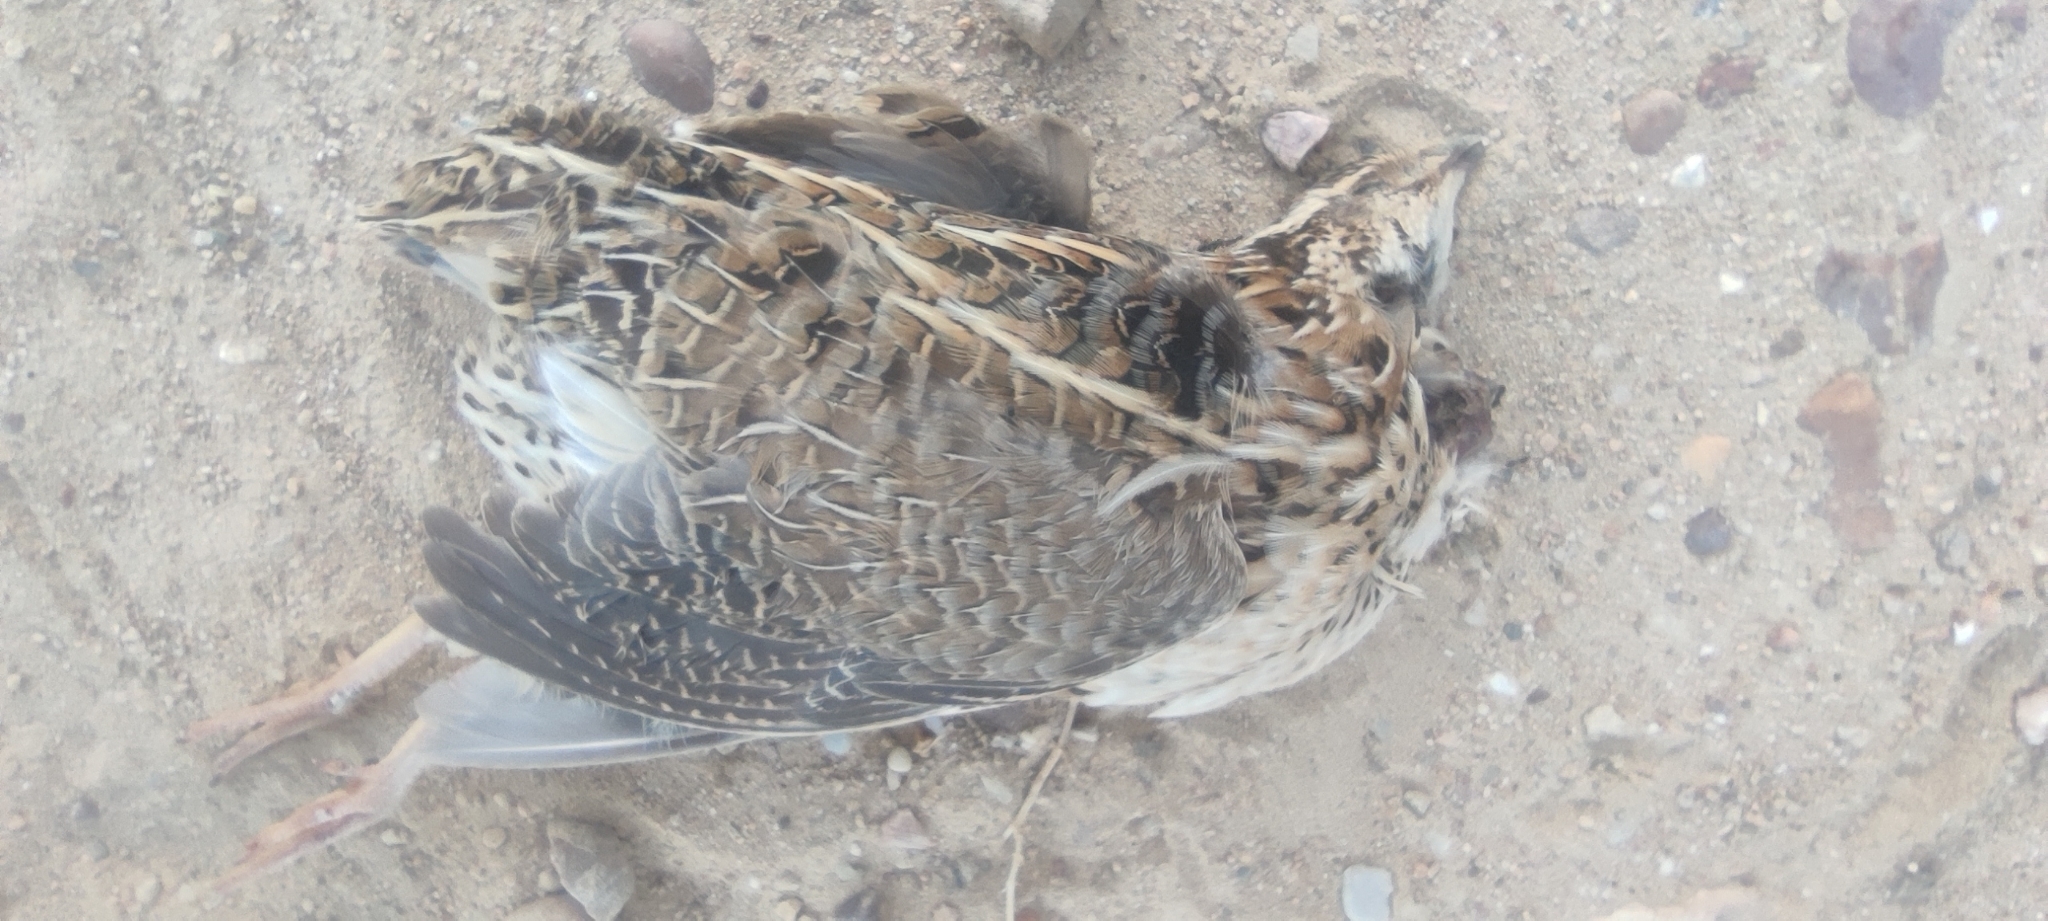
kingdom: Animalia
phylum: Chordata
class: Aves
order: Galliformes
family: Phasianidae
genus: Coturnix
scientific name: Coturnix coturnix
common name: Common quail
